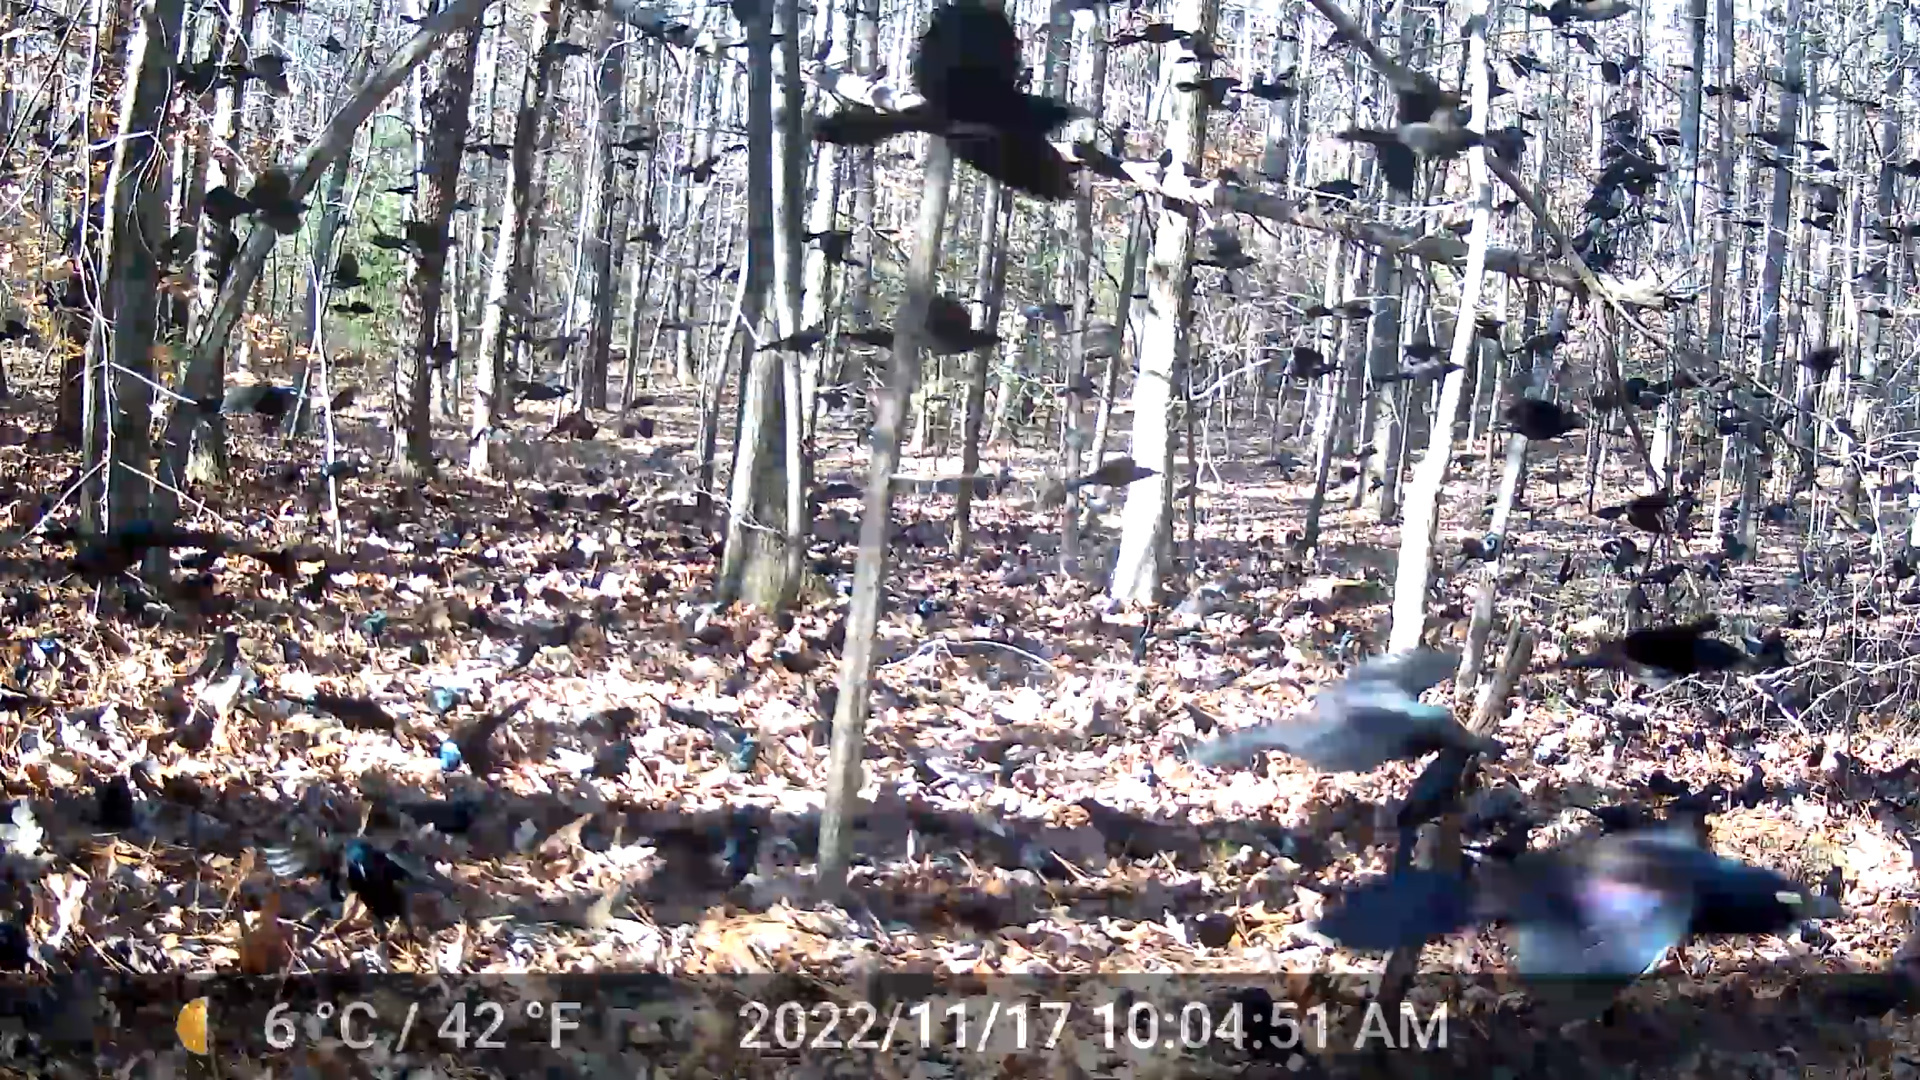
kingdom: Animalia
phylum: Chordata
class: Aves
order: Passeriformes
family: Icteridae
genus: Quiscalus
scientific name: Quiscalus quiscula
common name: Common grackle
